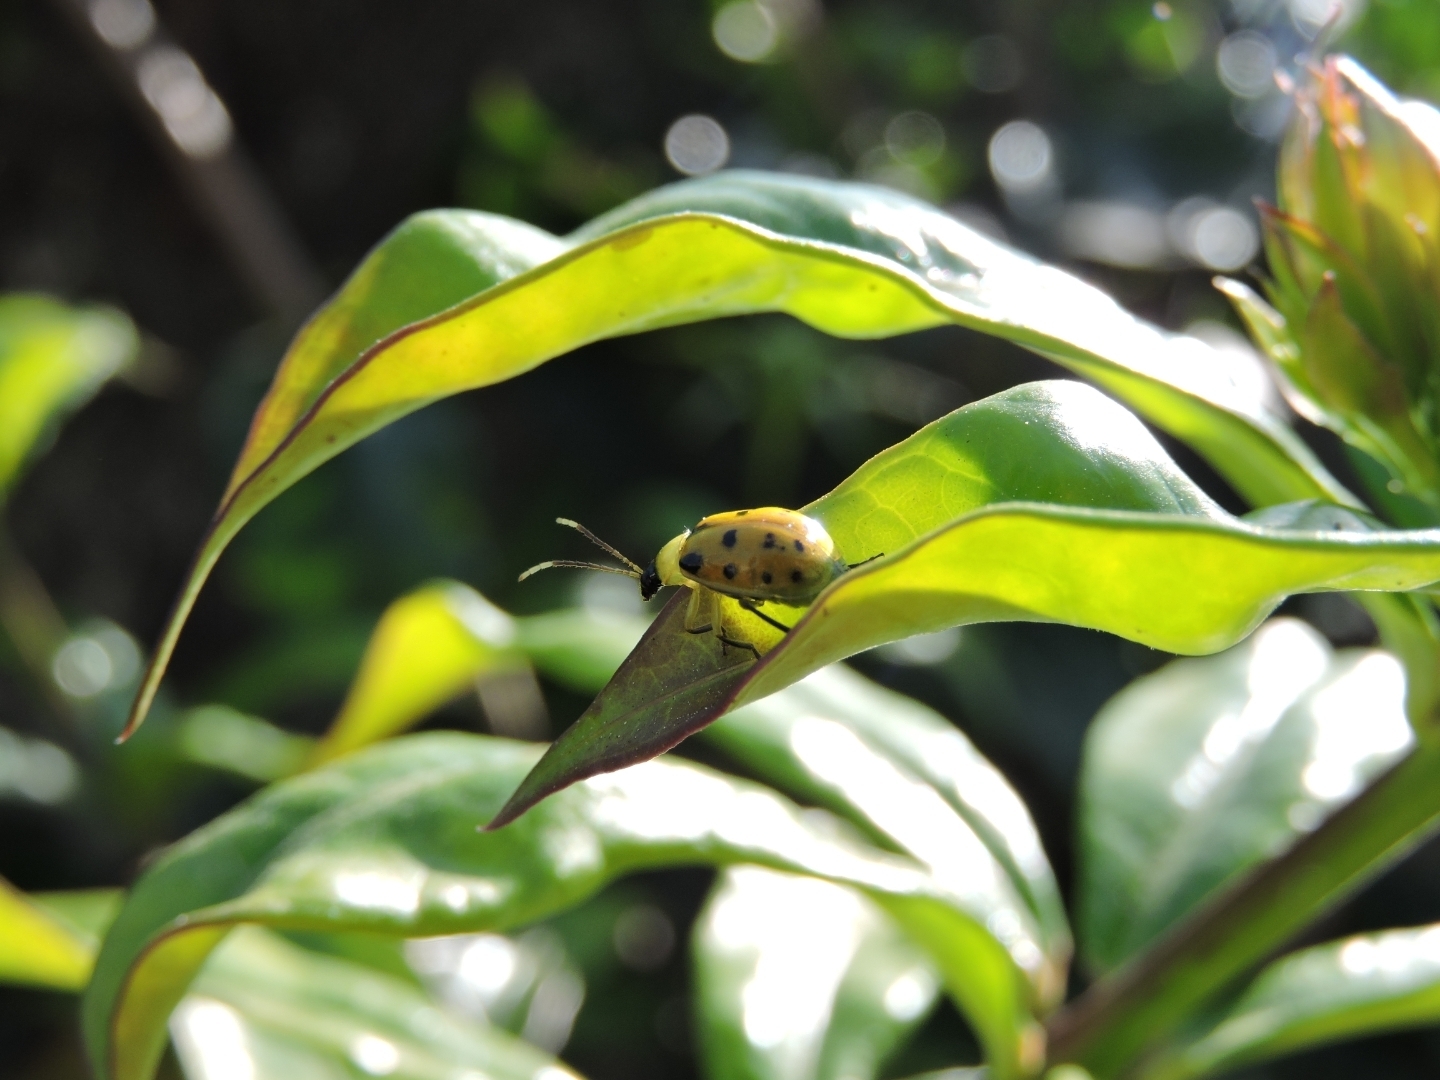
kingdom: Animalia
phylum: Arthropoda
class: Insecta
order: Coleoptera
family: Chrysomelidae
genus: Diabrotica
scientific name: Diabrotica limitata
